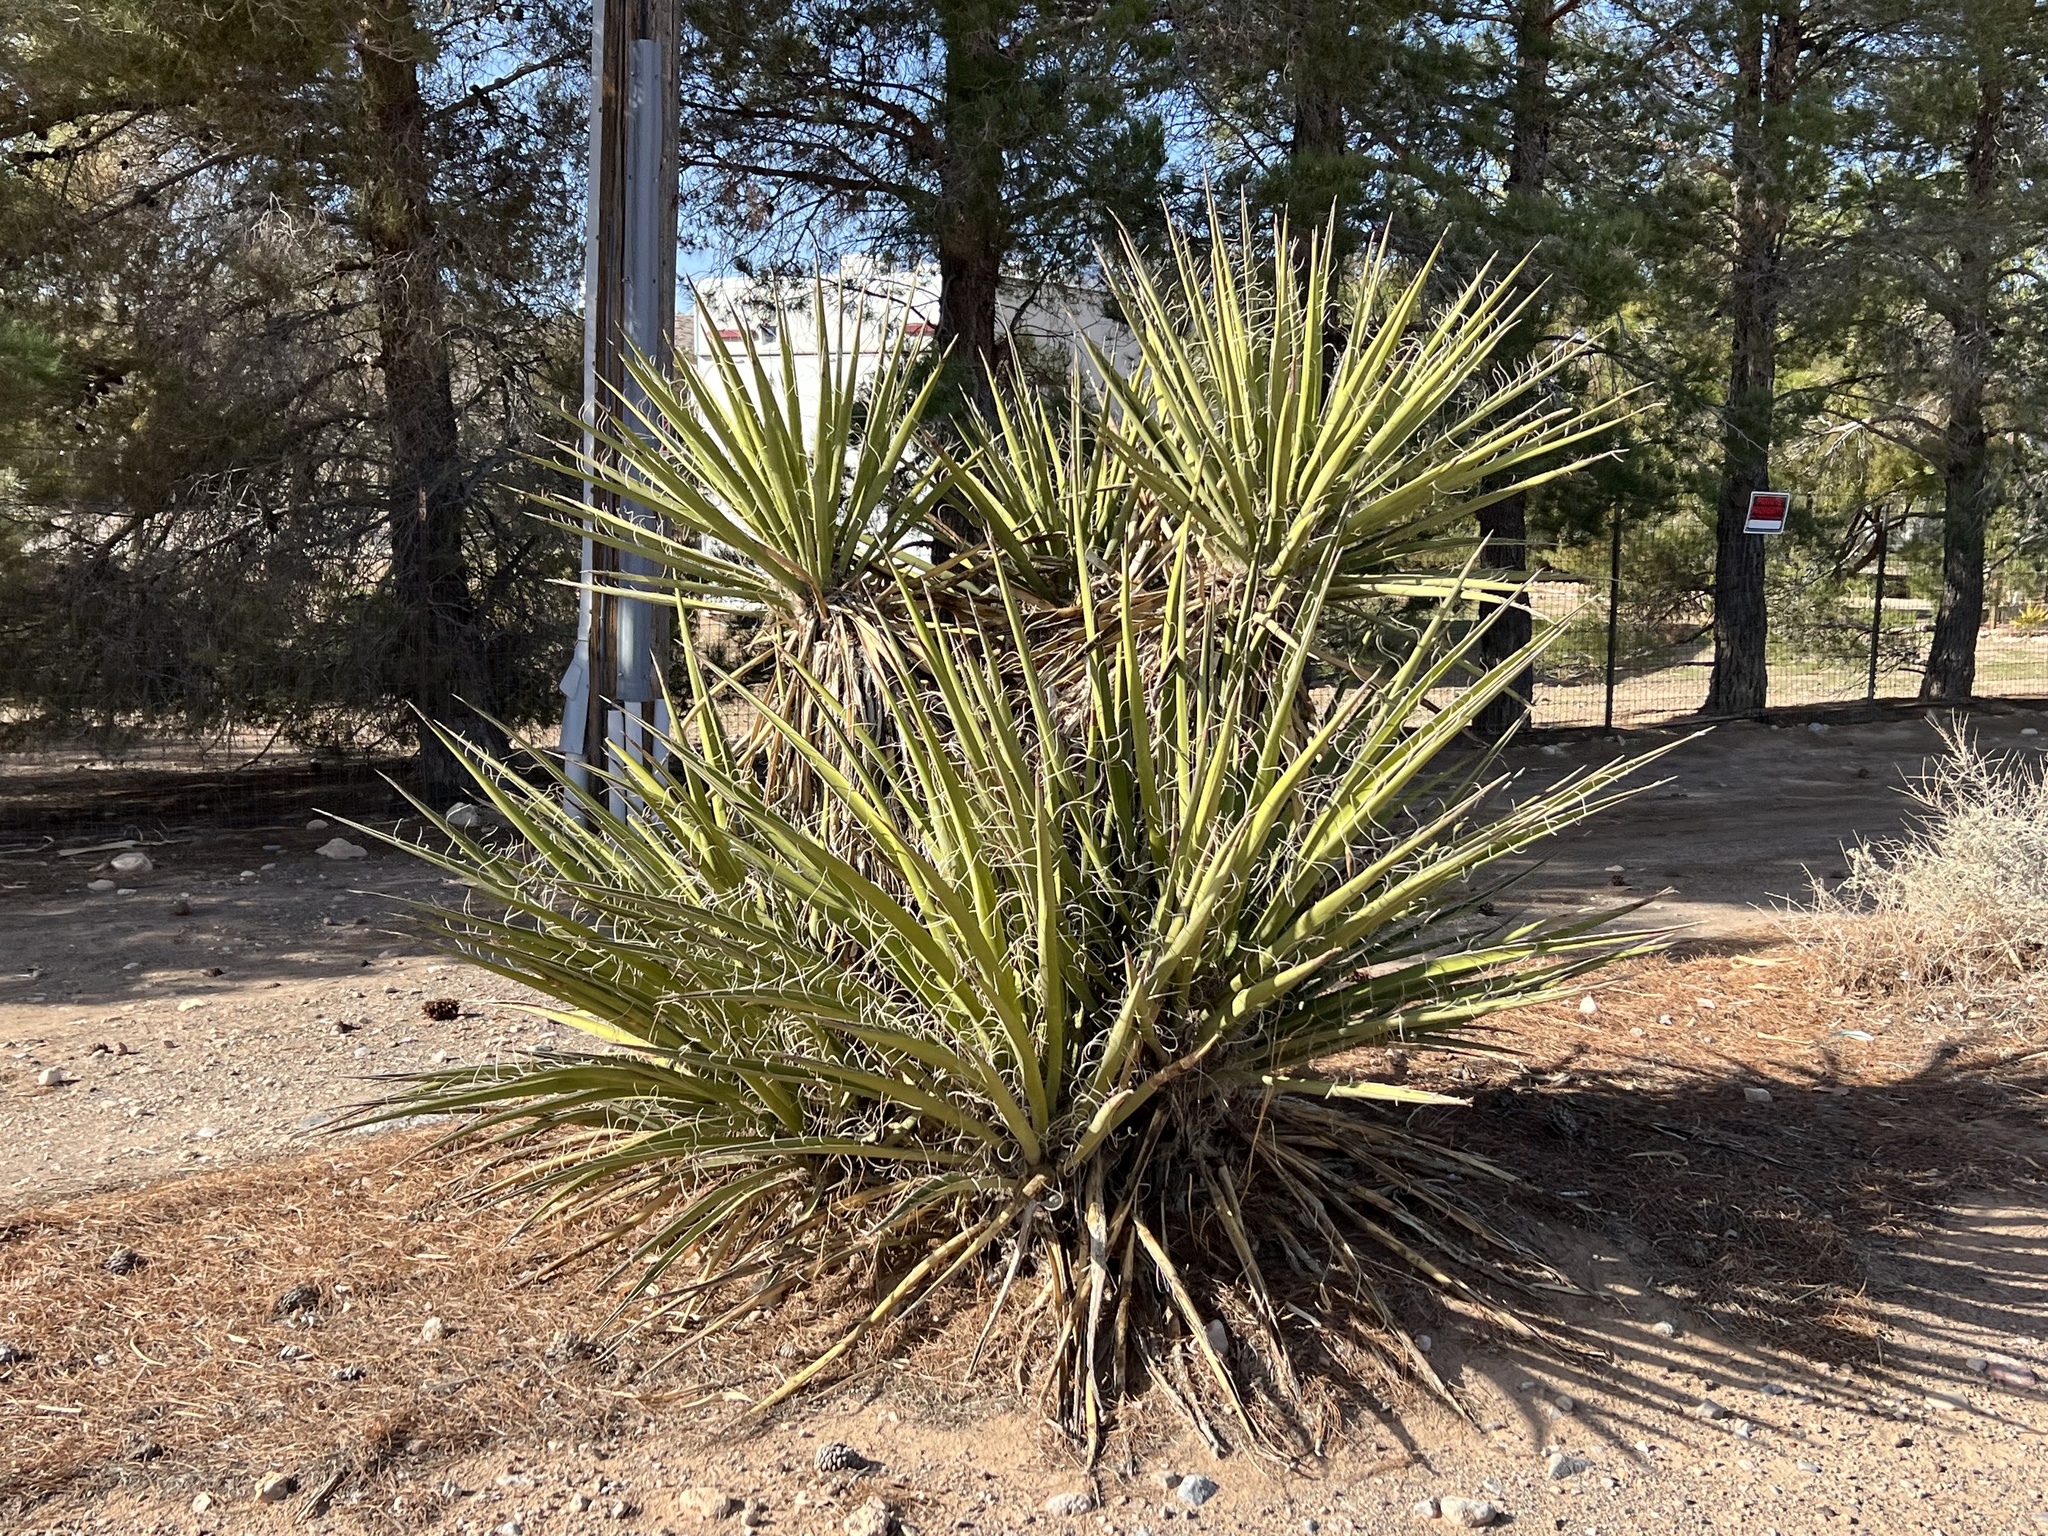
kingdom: Plantae
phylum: Tracheophyta
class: Liliopsida
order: Asparagales
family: Asparagaceae
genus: Yucca
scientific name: Yucca schidigera
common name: Mojave yucca
